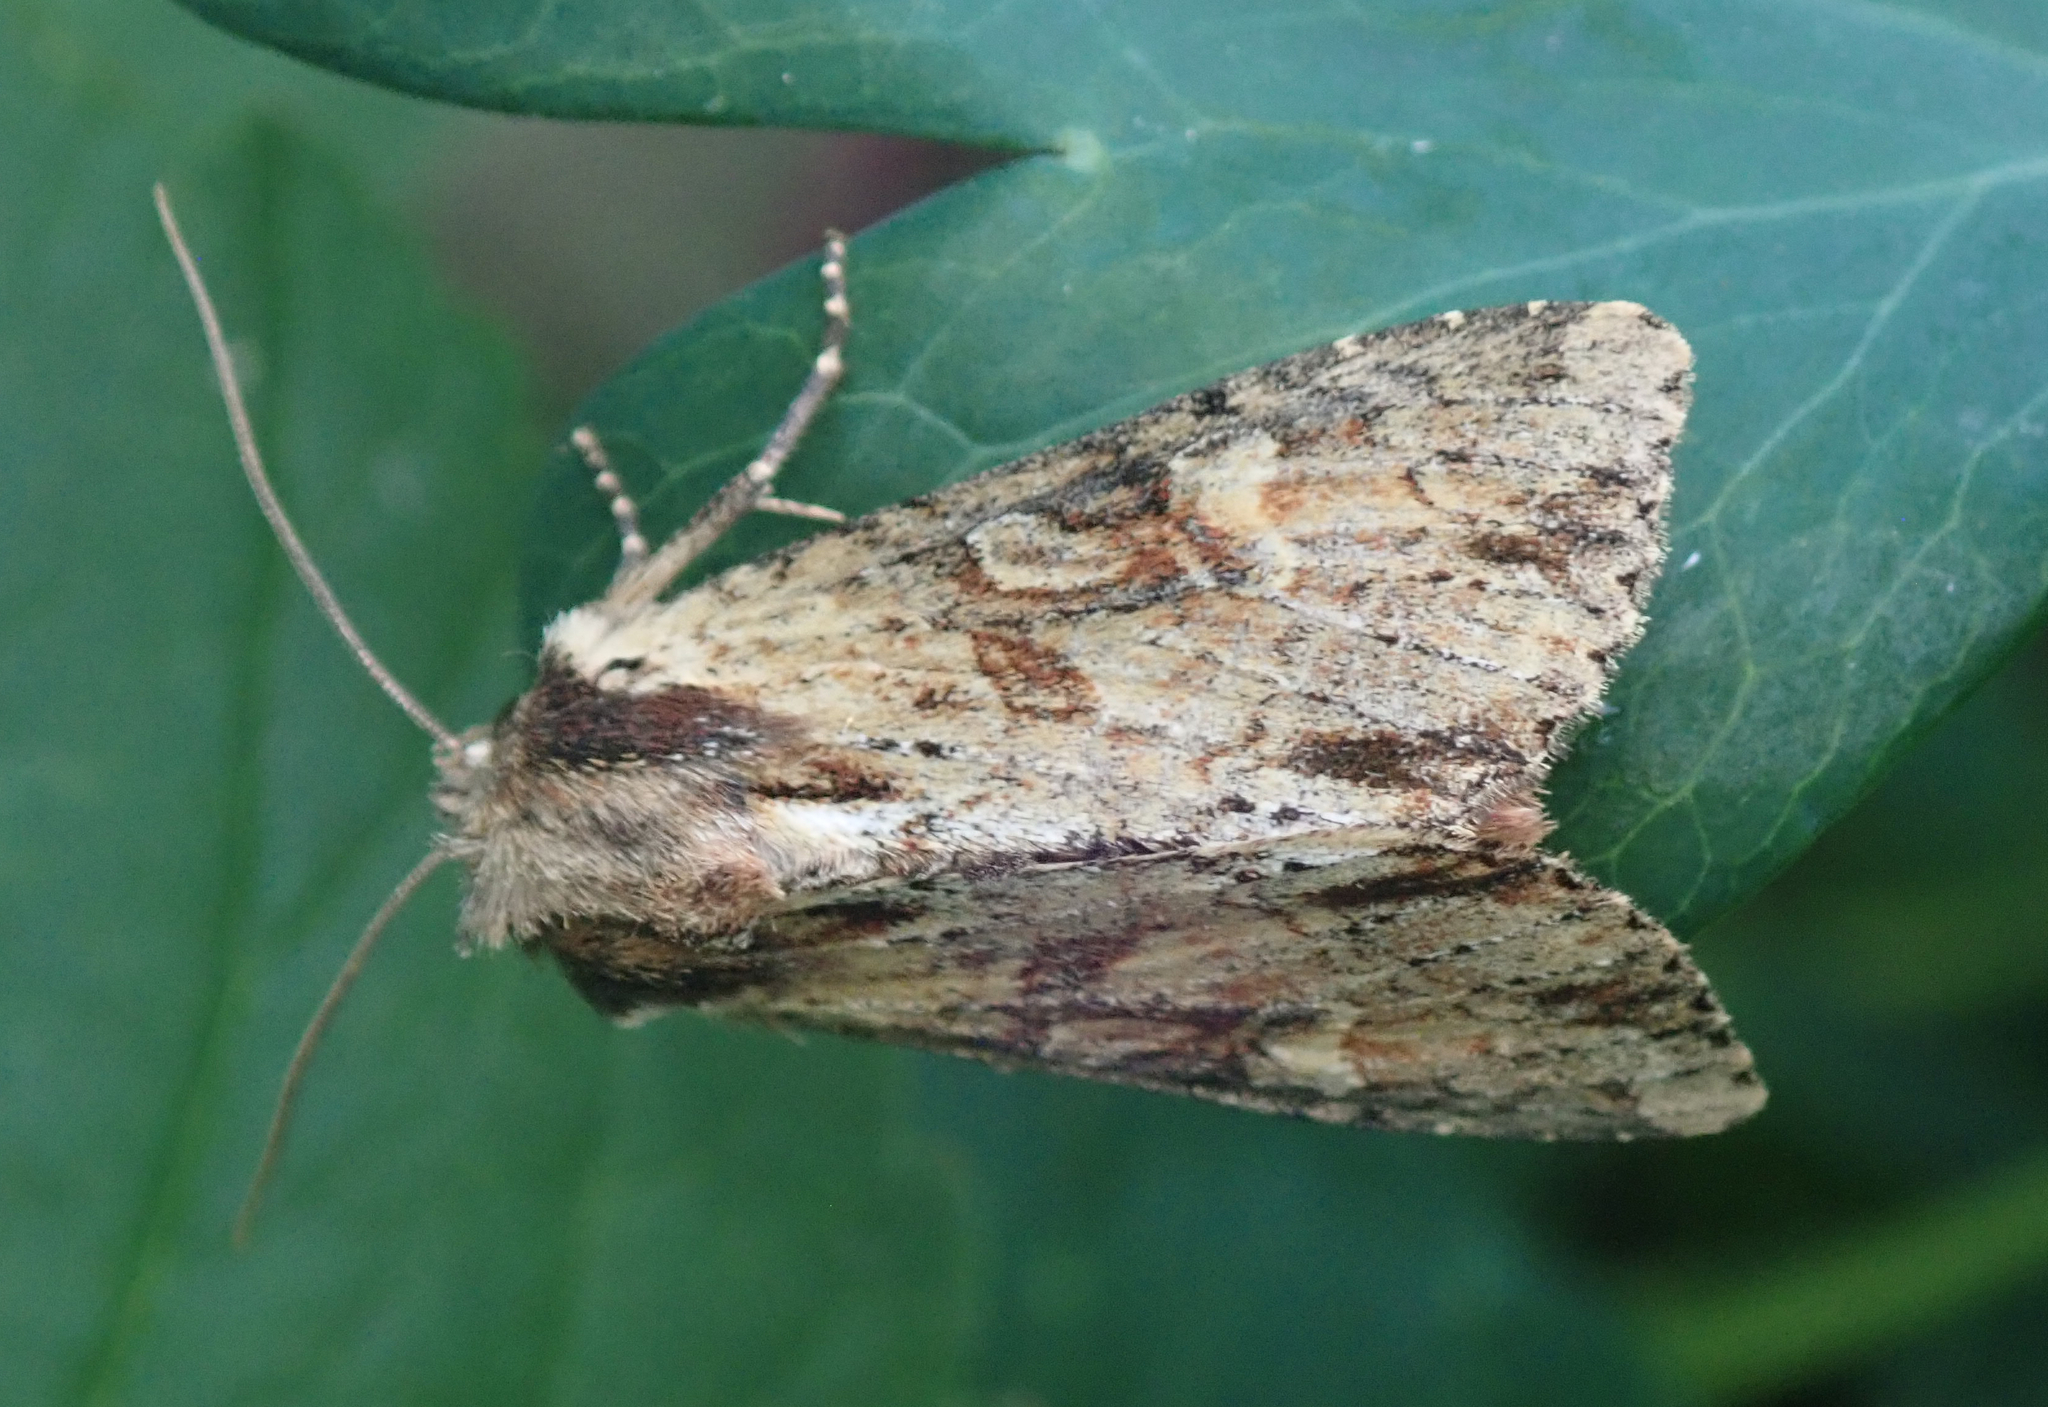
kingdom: Animalia
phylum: Arthropoda
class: Insecta
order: Lepidoptera
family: Noctuidae
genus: Apamea
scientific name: Apamea crenata
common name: Clouded-bordered brindle
